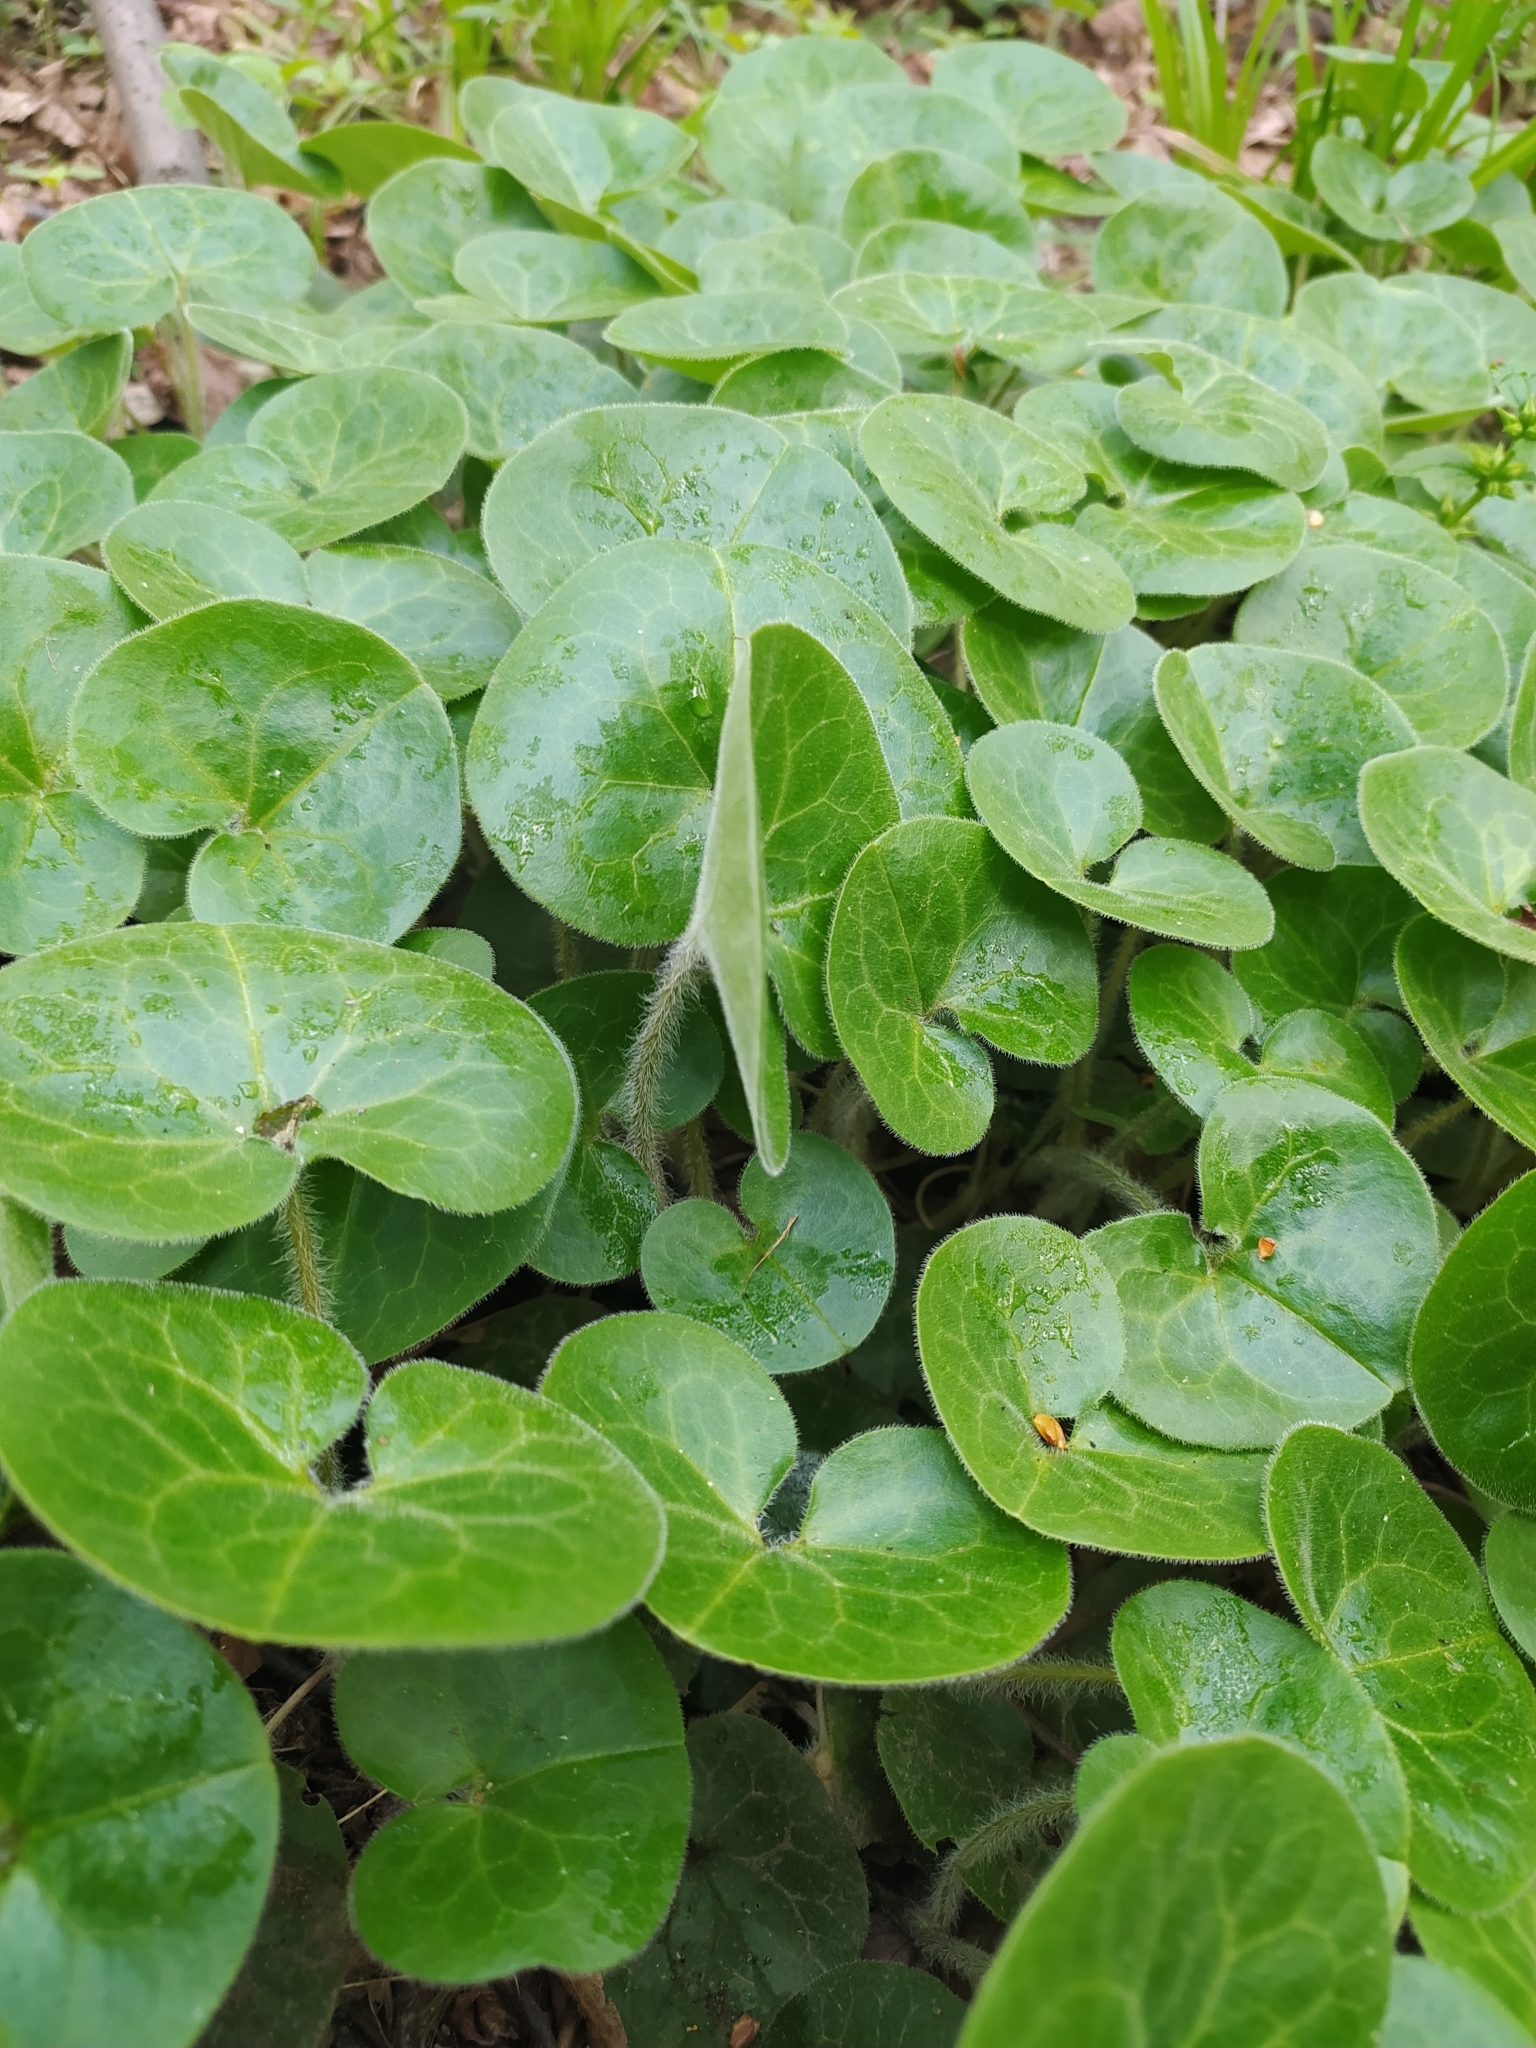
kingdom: Plantae
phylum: Tracheophyta
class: Magnoliopsida
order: Piperales
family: Aristolochiaceae
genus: Asarum
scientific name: Asarum europaeum
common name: Asarabacca
